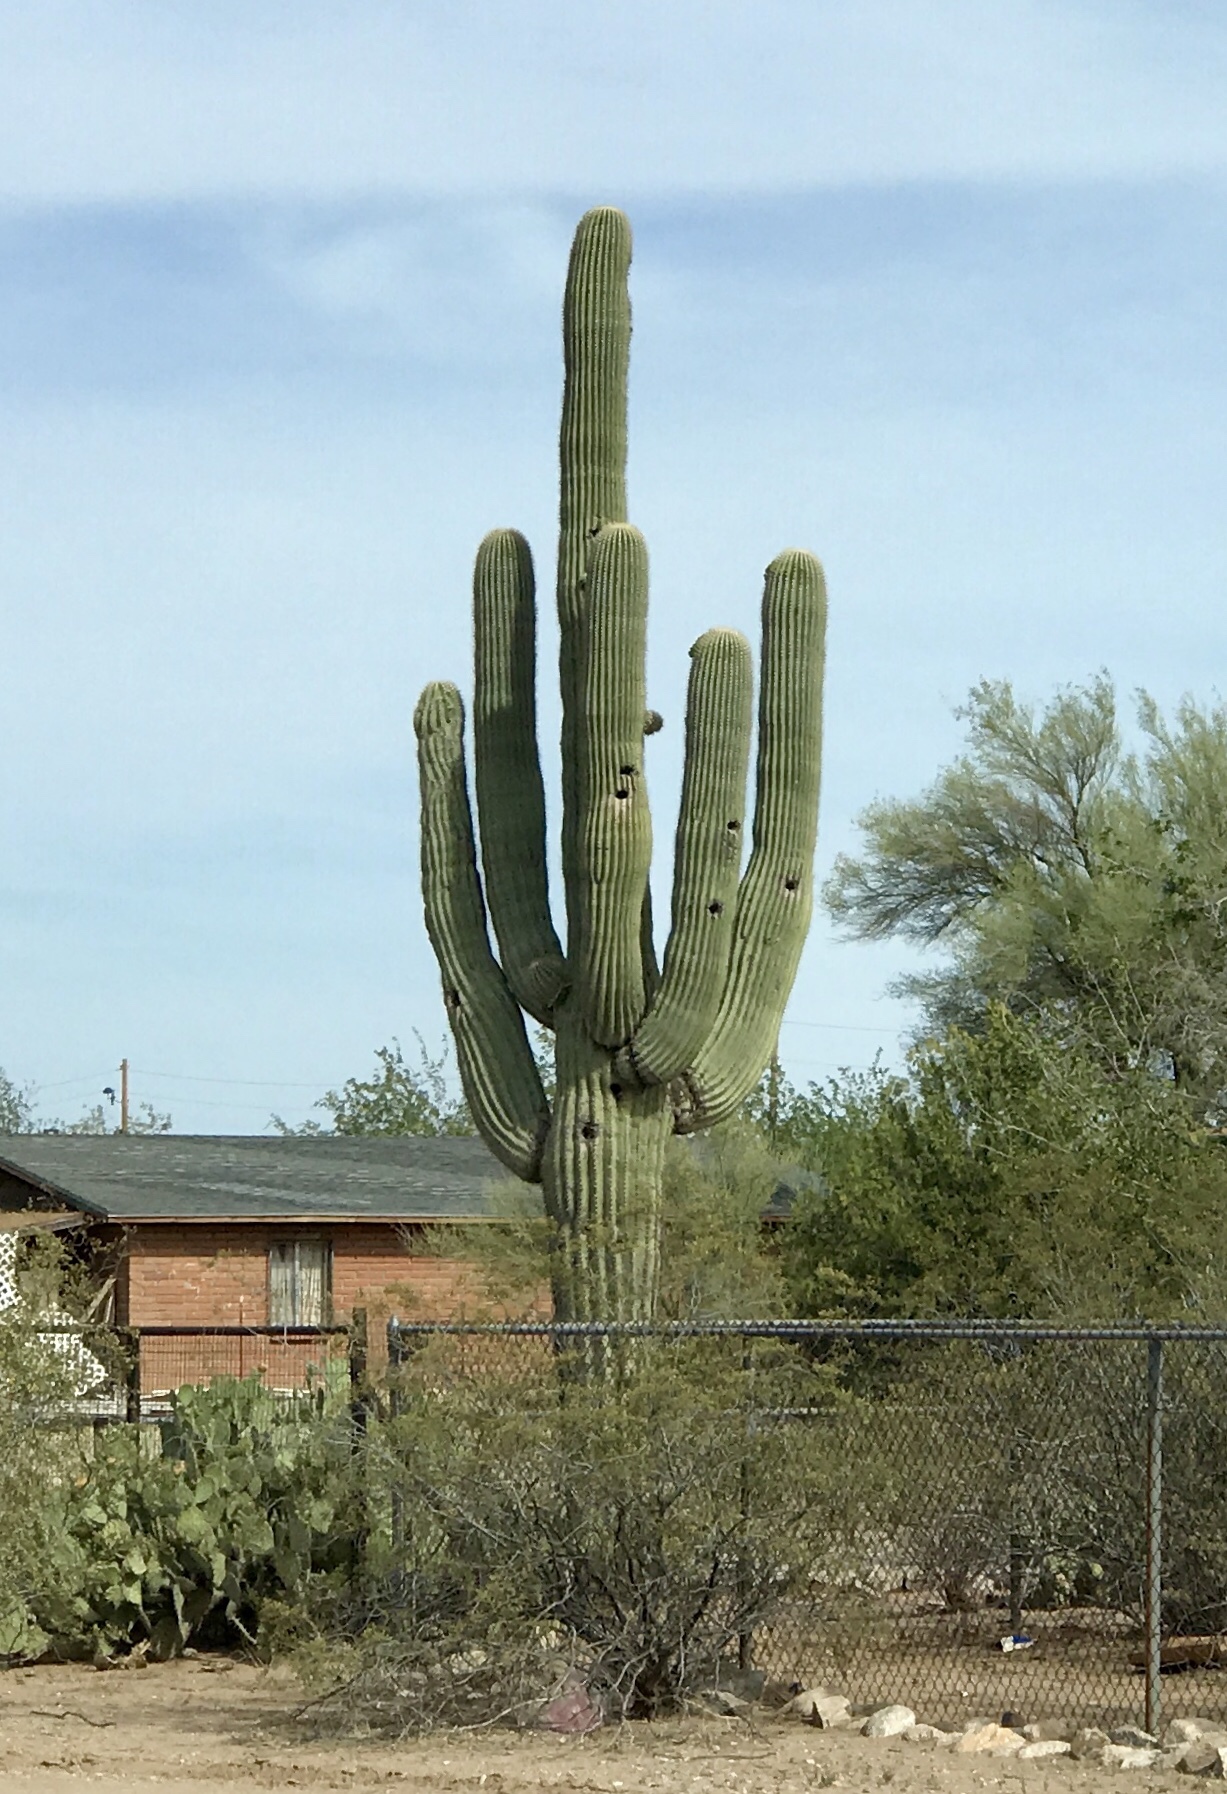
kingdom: Plantae
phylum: Tracheophyta
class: Magnoliopsida
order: Caryophyllales
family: Cactaceae
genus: Carnegiea
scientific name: Carnegiea gigantea
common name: Saguaro
